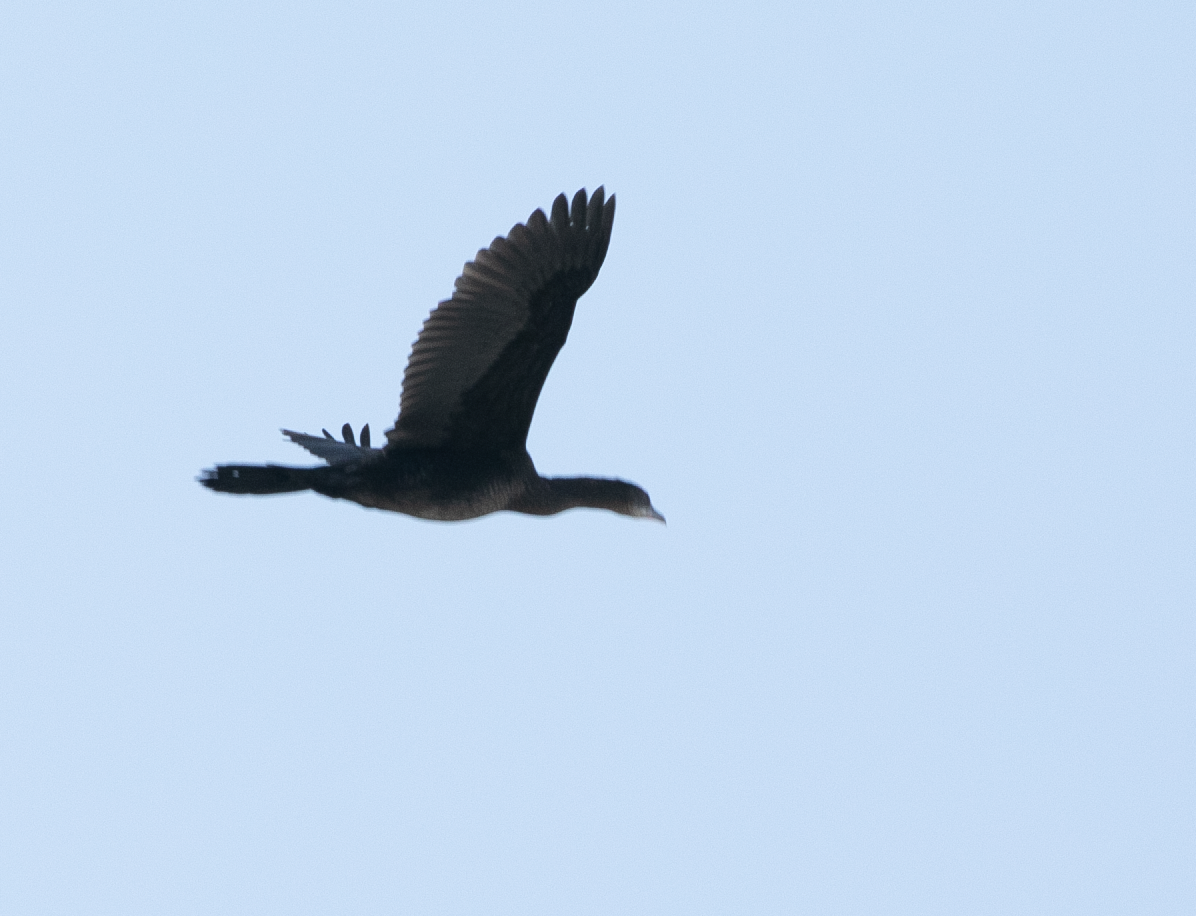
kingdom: Animalia
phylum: Chordata
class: Aves
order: Suliformes
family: Phalacrocoracidae
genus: Microcarbo
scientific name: Microcarbo pygmaeus
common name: Pygmy cormorant
